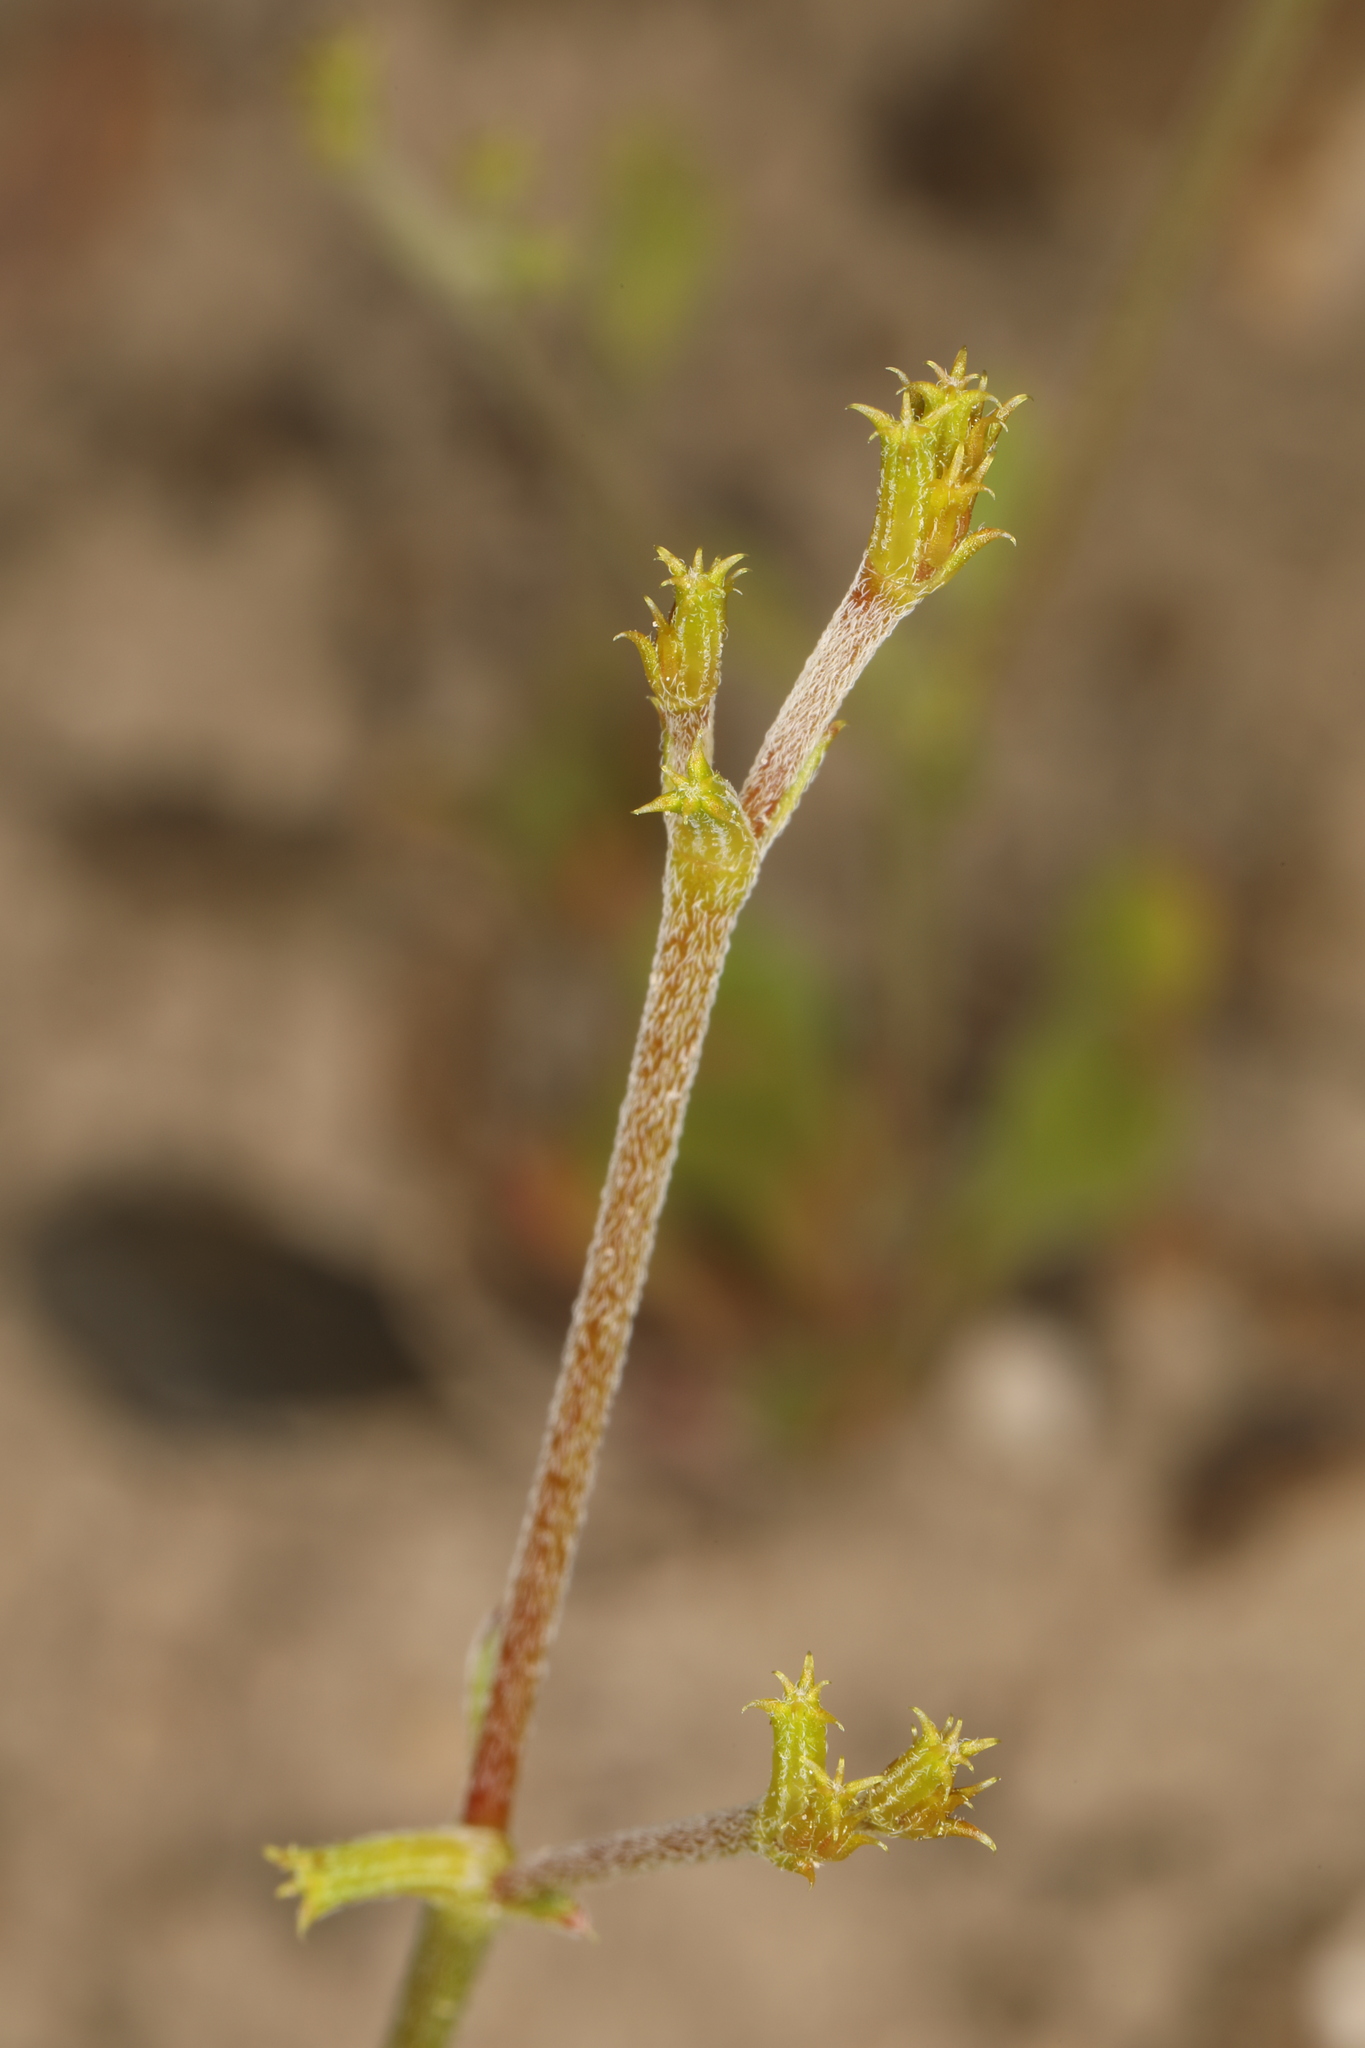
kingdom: Plantae
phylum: Tracheophyta
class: Magnoliopsida
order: Caryophyllales
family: Polygonaceae
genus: Chorizanthe
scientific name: Chorizanthe brevicornu
